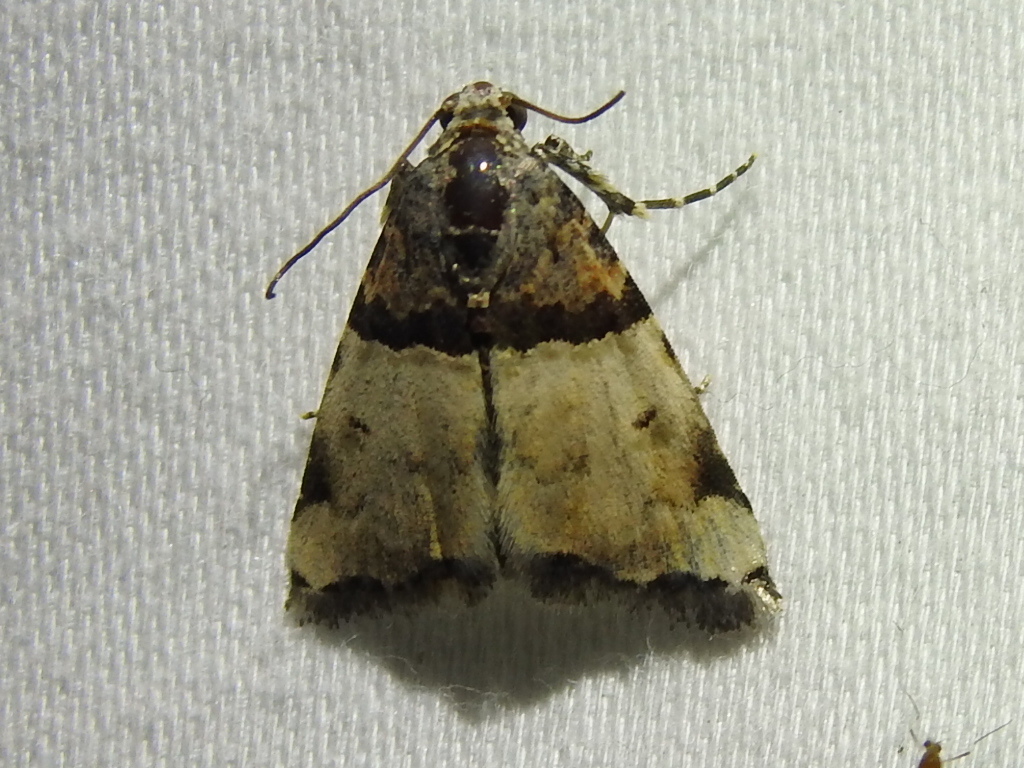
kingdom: Animalia
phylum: Arthropoda
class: Insecta
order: Lepidoptera
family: Noctuidae
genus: Cobubatha
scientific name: Cobubatha dividua
